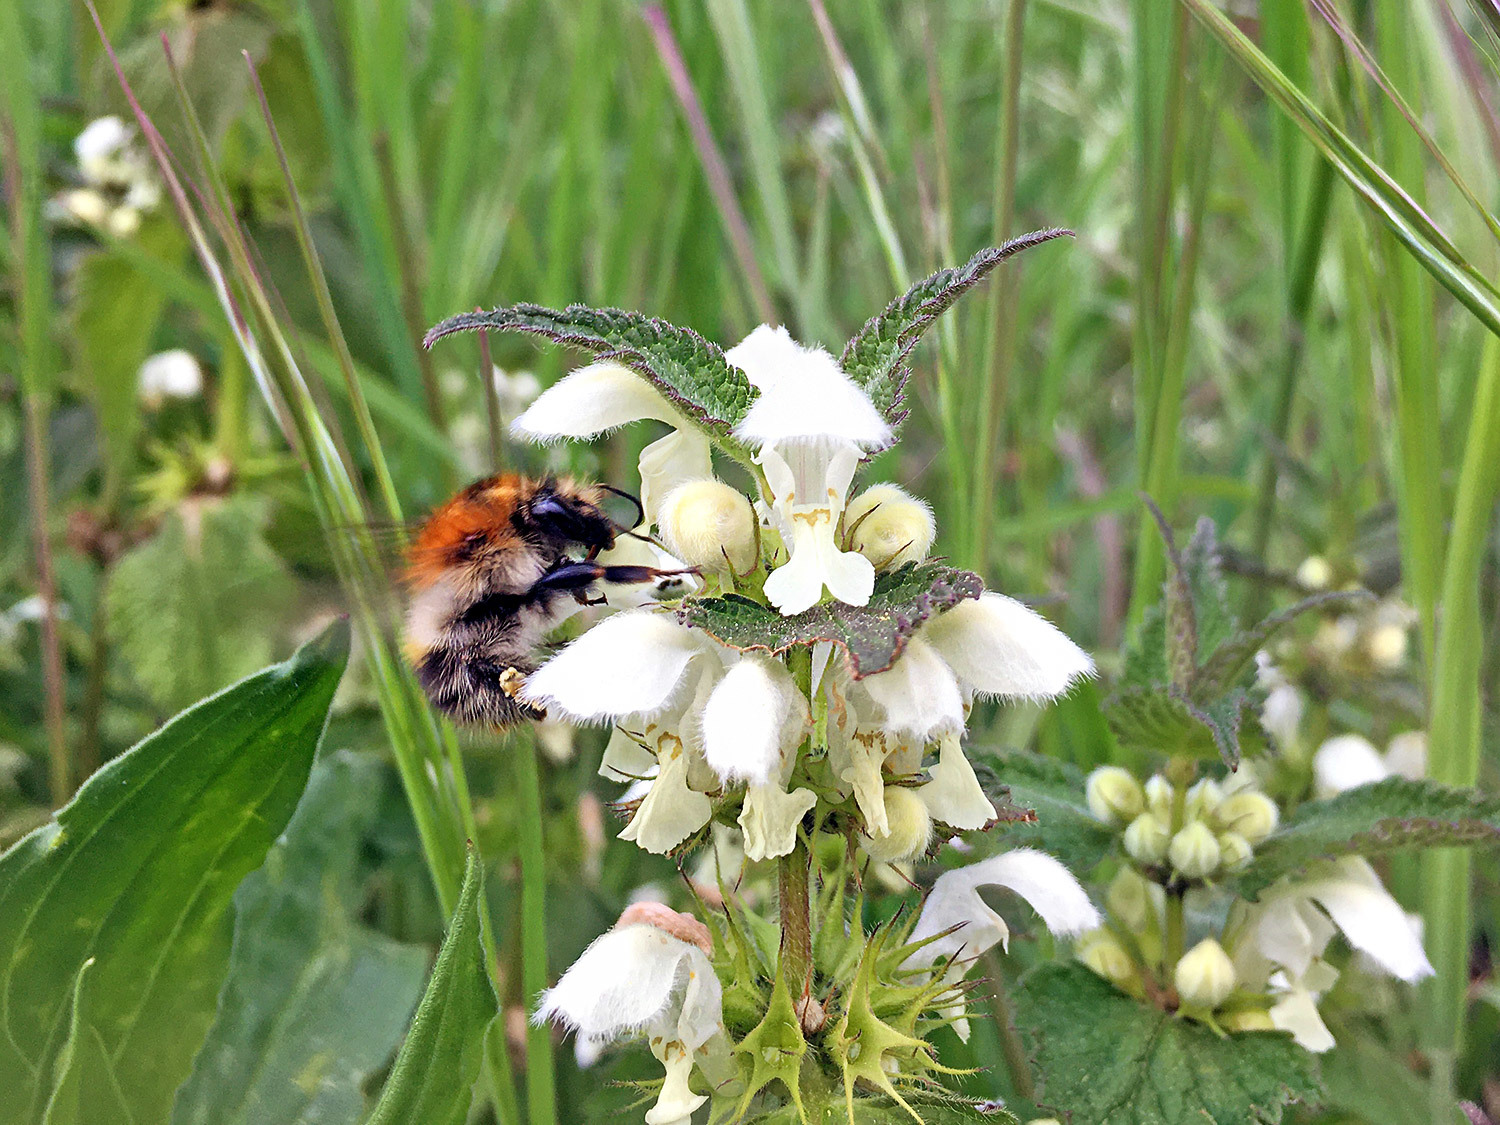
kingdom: Animalia
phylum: Arthropoda
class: Insecta
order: Hymenoptera
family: Apidae
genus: Bombus
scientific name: Bombus pascuorum
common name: Common carder bee
